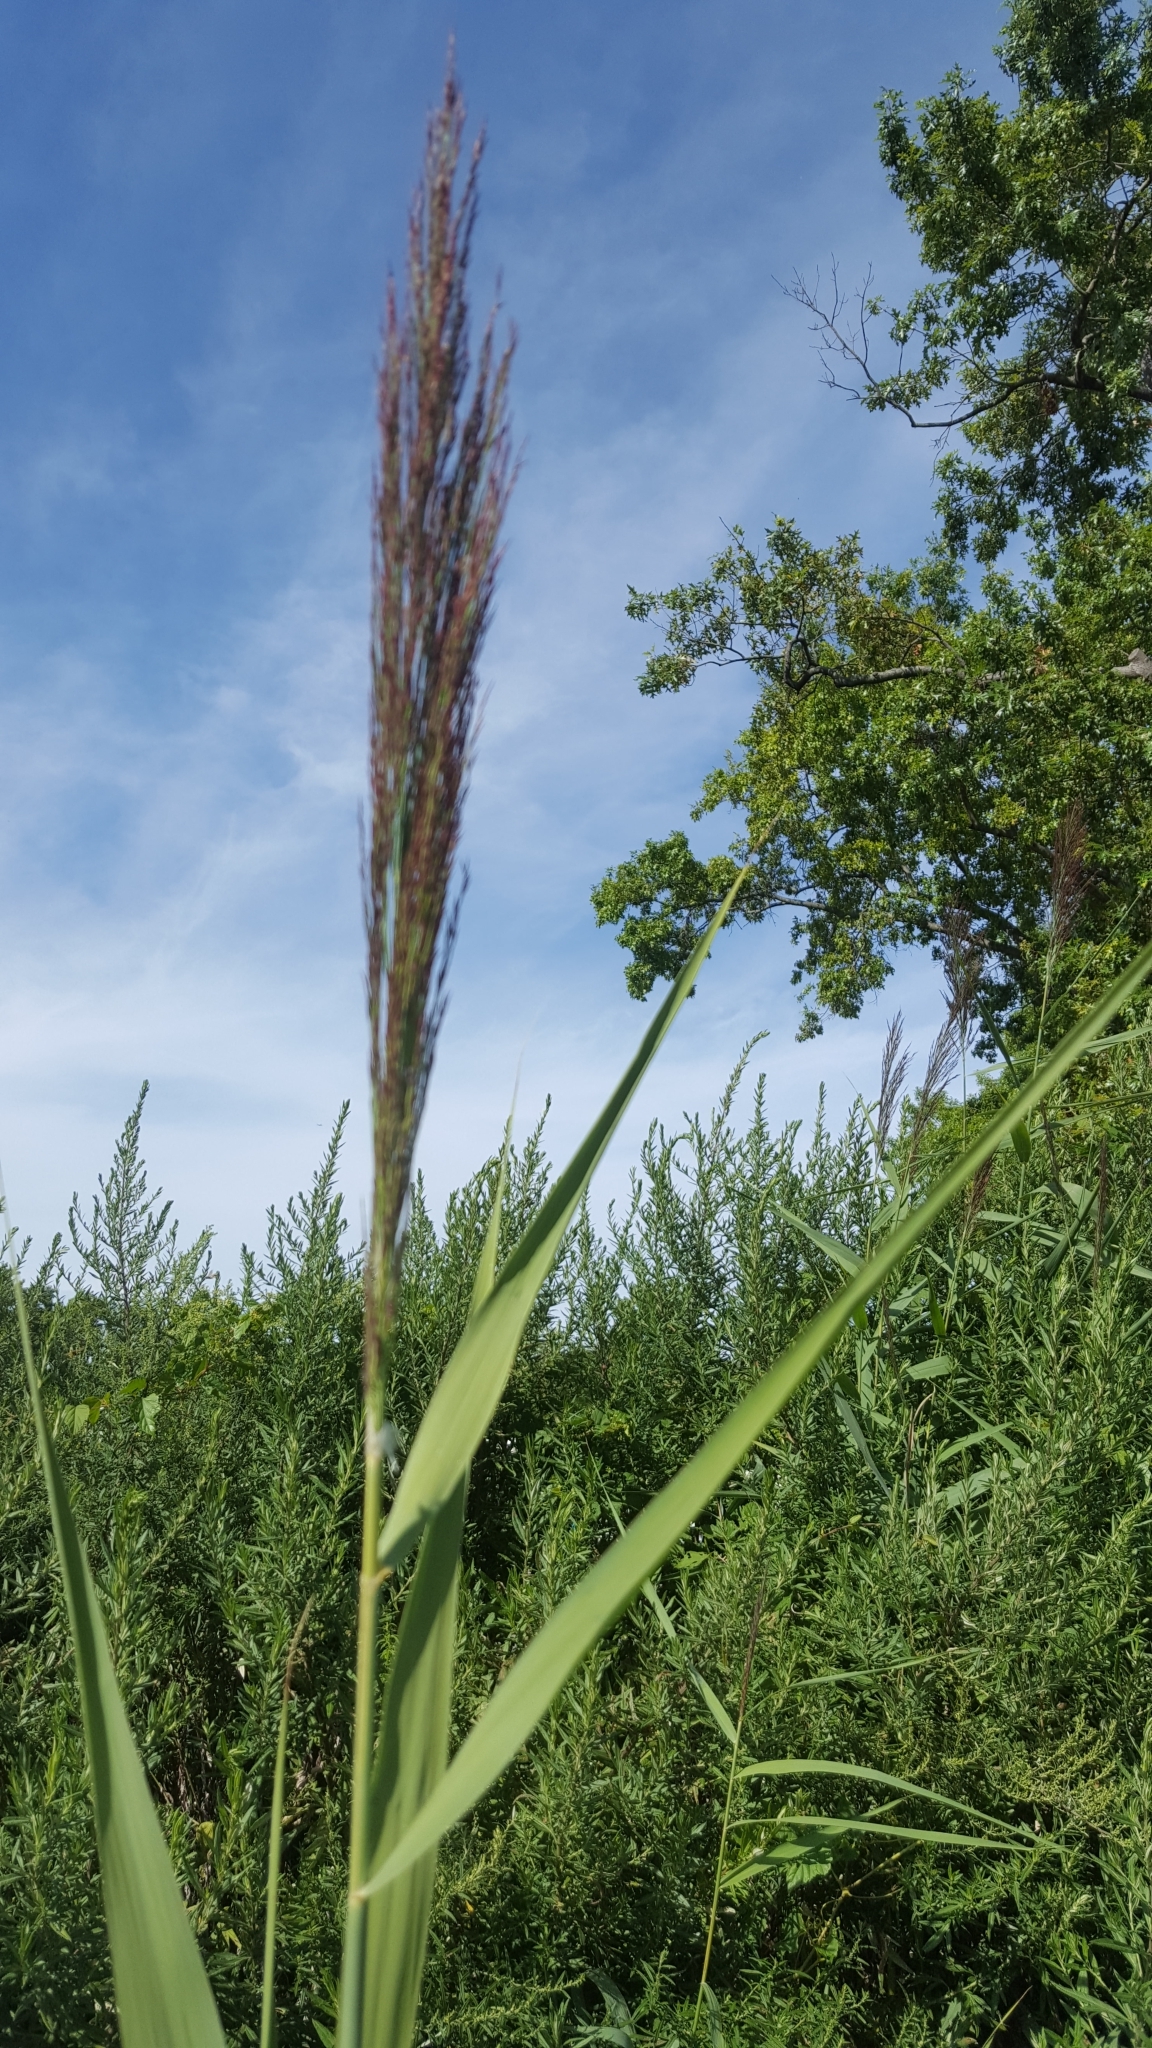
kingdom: Plantae
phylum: Tracheophyta
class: Liliopsida
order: Poales
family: Poaceae
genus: Phragmites
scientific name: Phragmites australis
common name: Common reed
